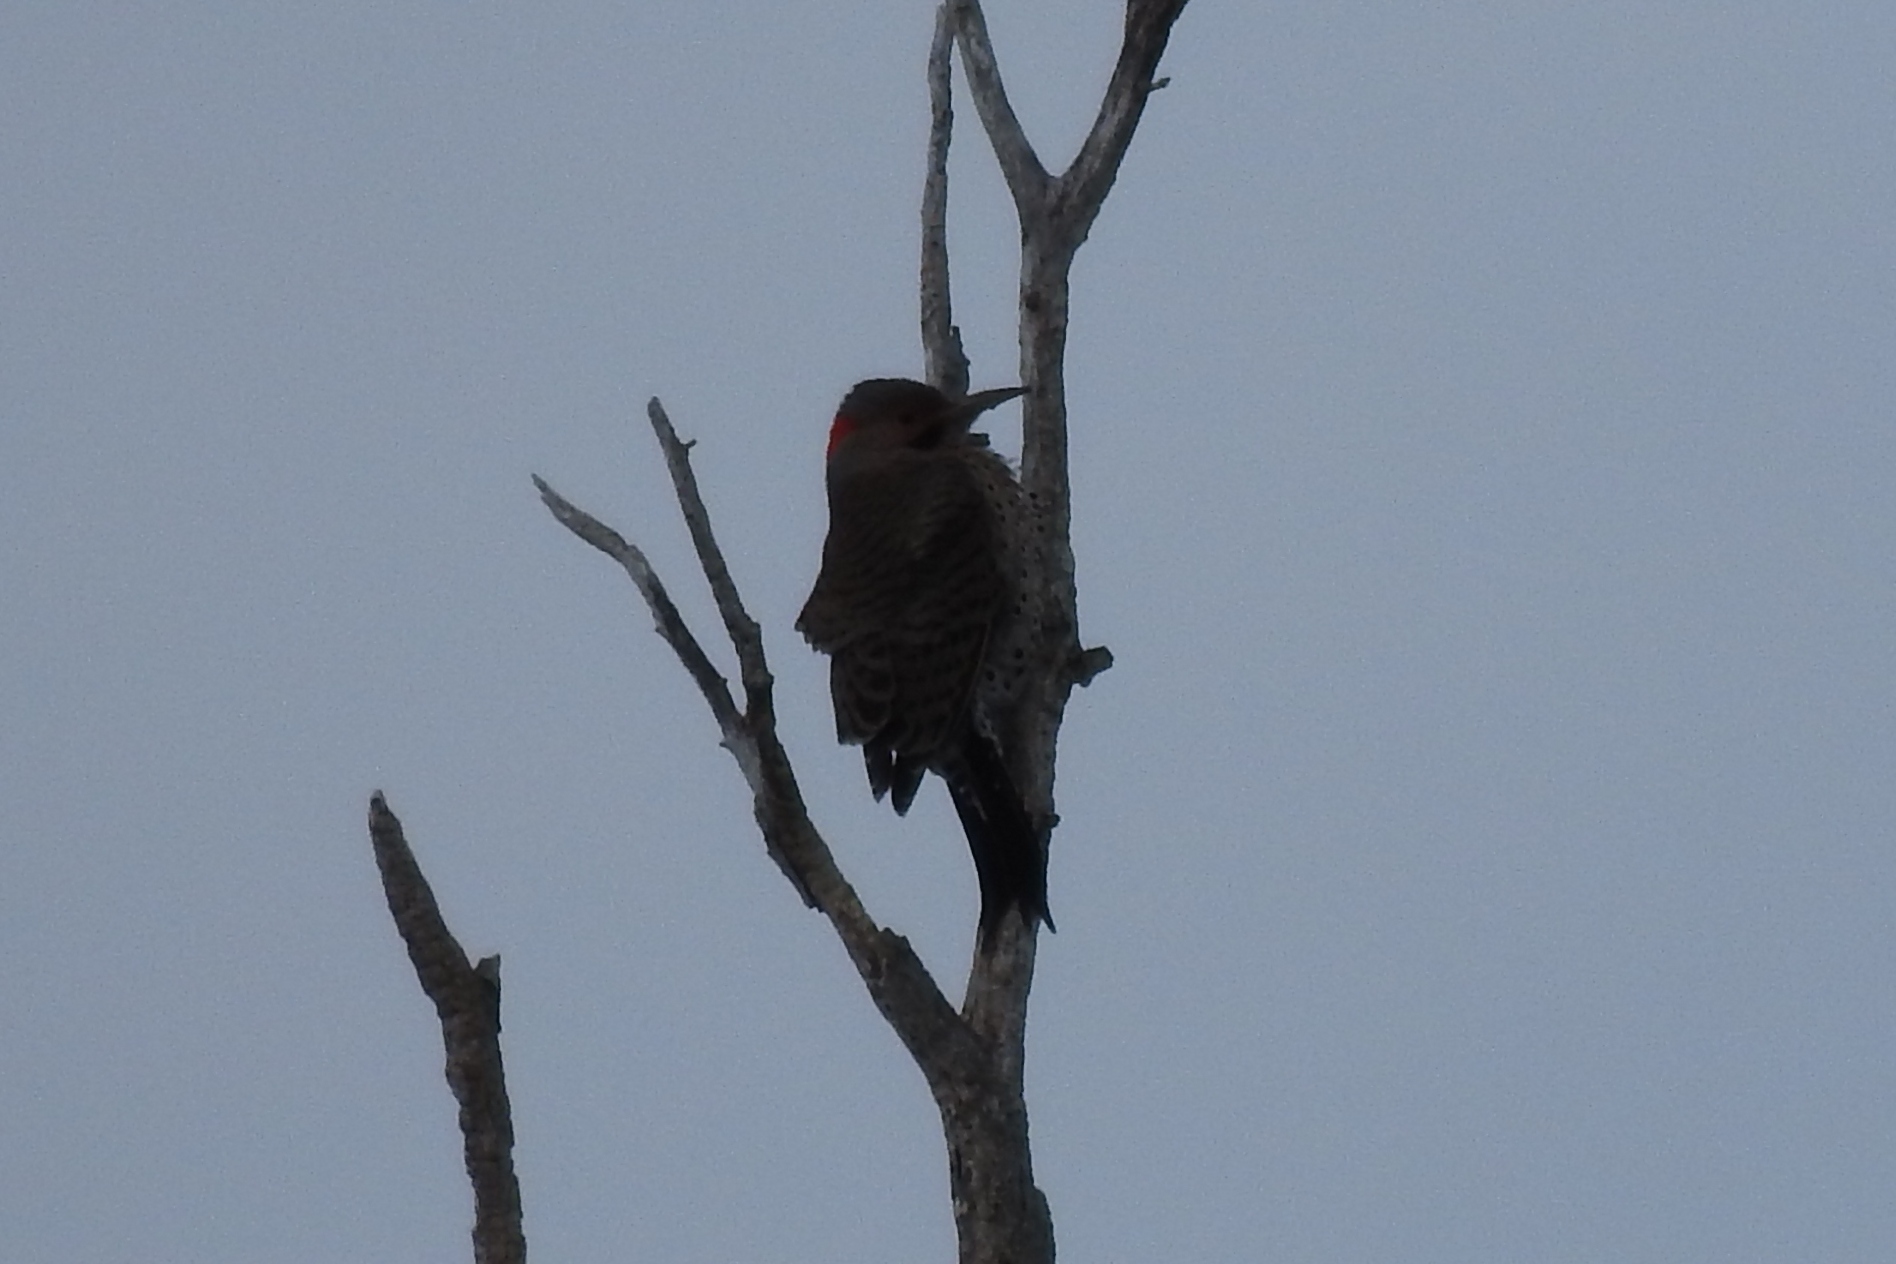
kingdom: Animalia
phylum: Chordata
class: Aves
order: Piciformes
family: Picidae
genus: Colaptes
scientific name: Colaptes auratus
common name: Northern flicker
